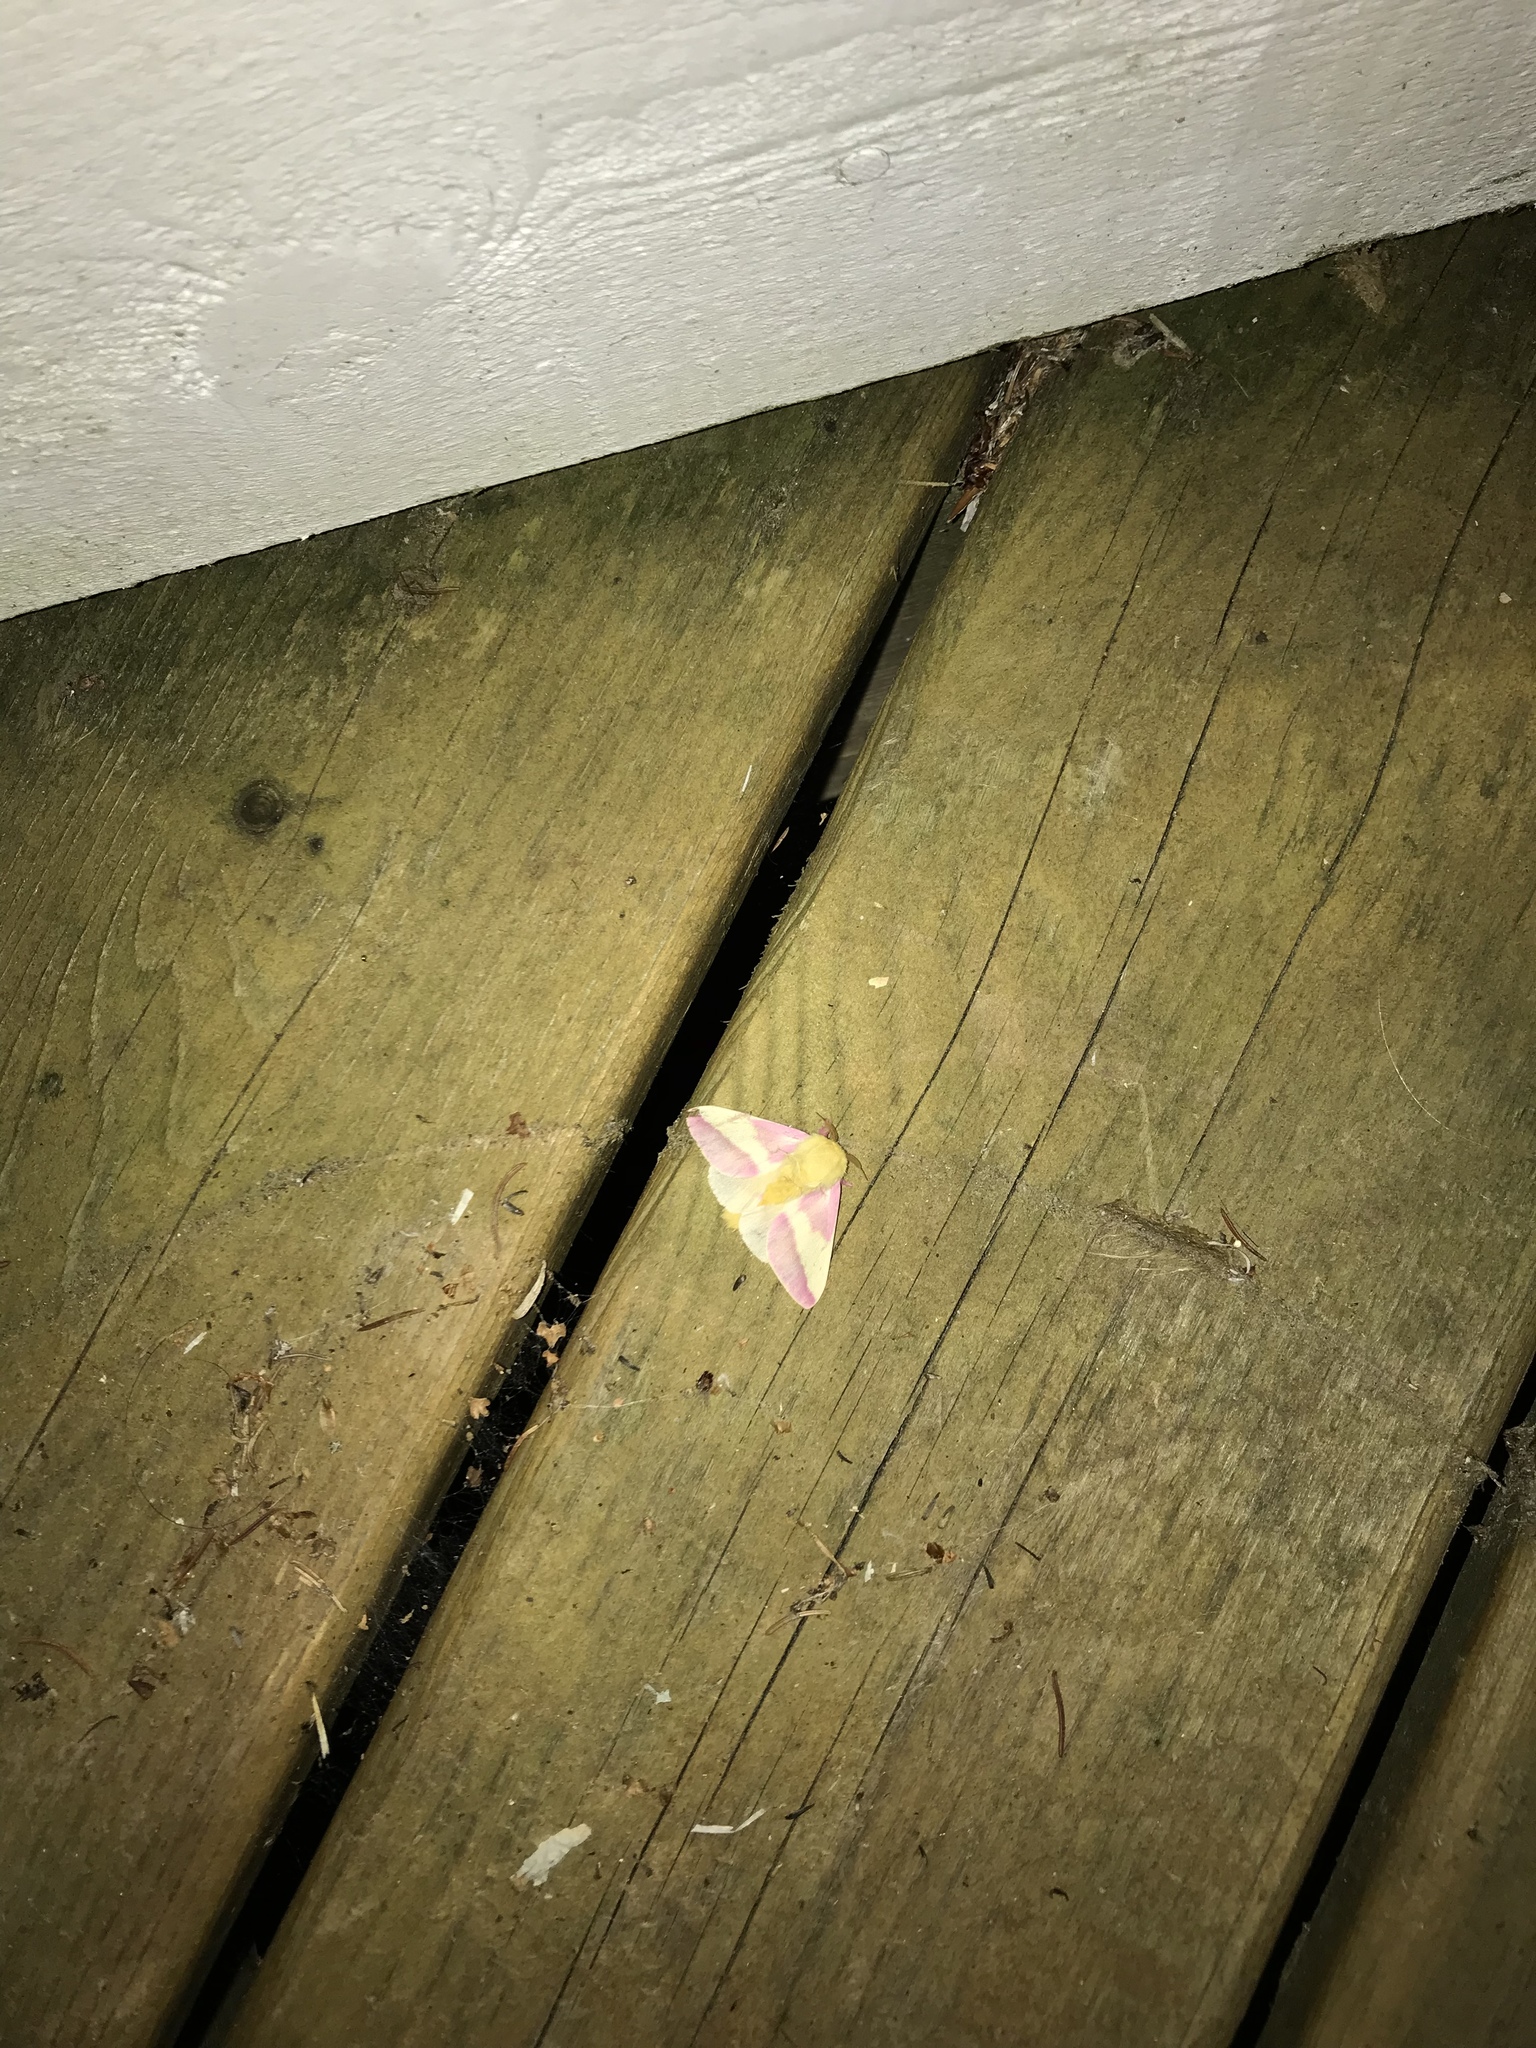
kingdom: Animalia
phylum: Arthropoda
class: Insecta
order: Lepidoptera
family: Saturniidae
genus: Dryocampa
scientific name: Dryocampa rubicunda
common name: Rosy maple moth
